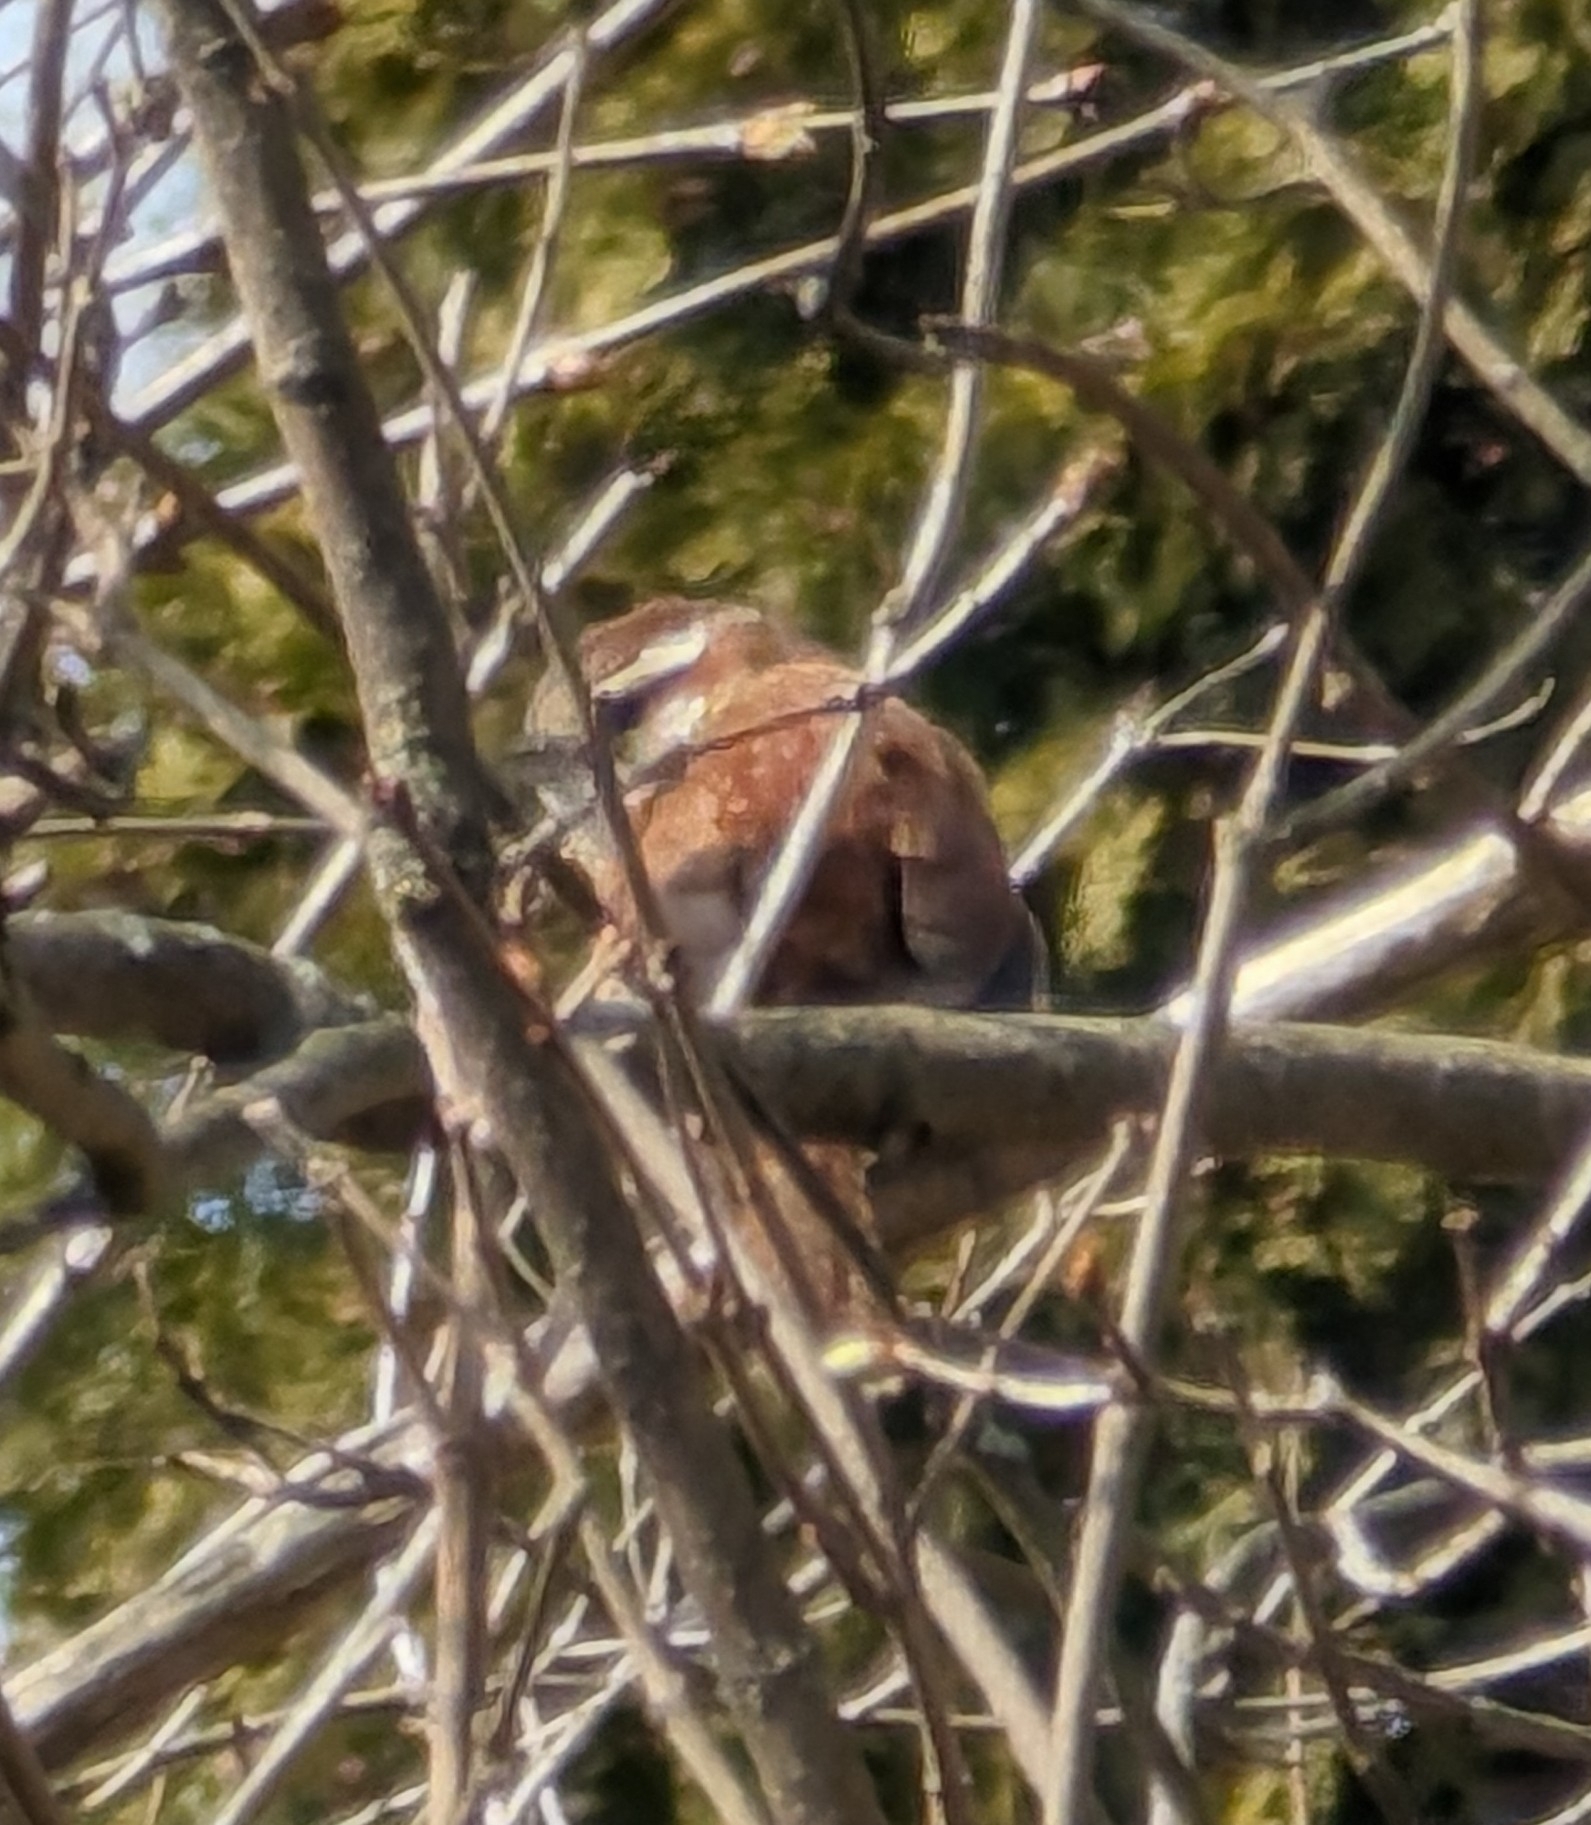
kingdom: Animalia
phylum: Chordata
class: Aves
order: Passeriformes
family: Troglodytidae
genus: Thryothorus
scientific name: Thryothorus ludovicianus
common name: Carolina wren
